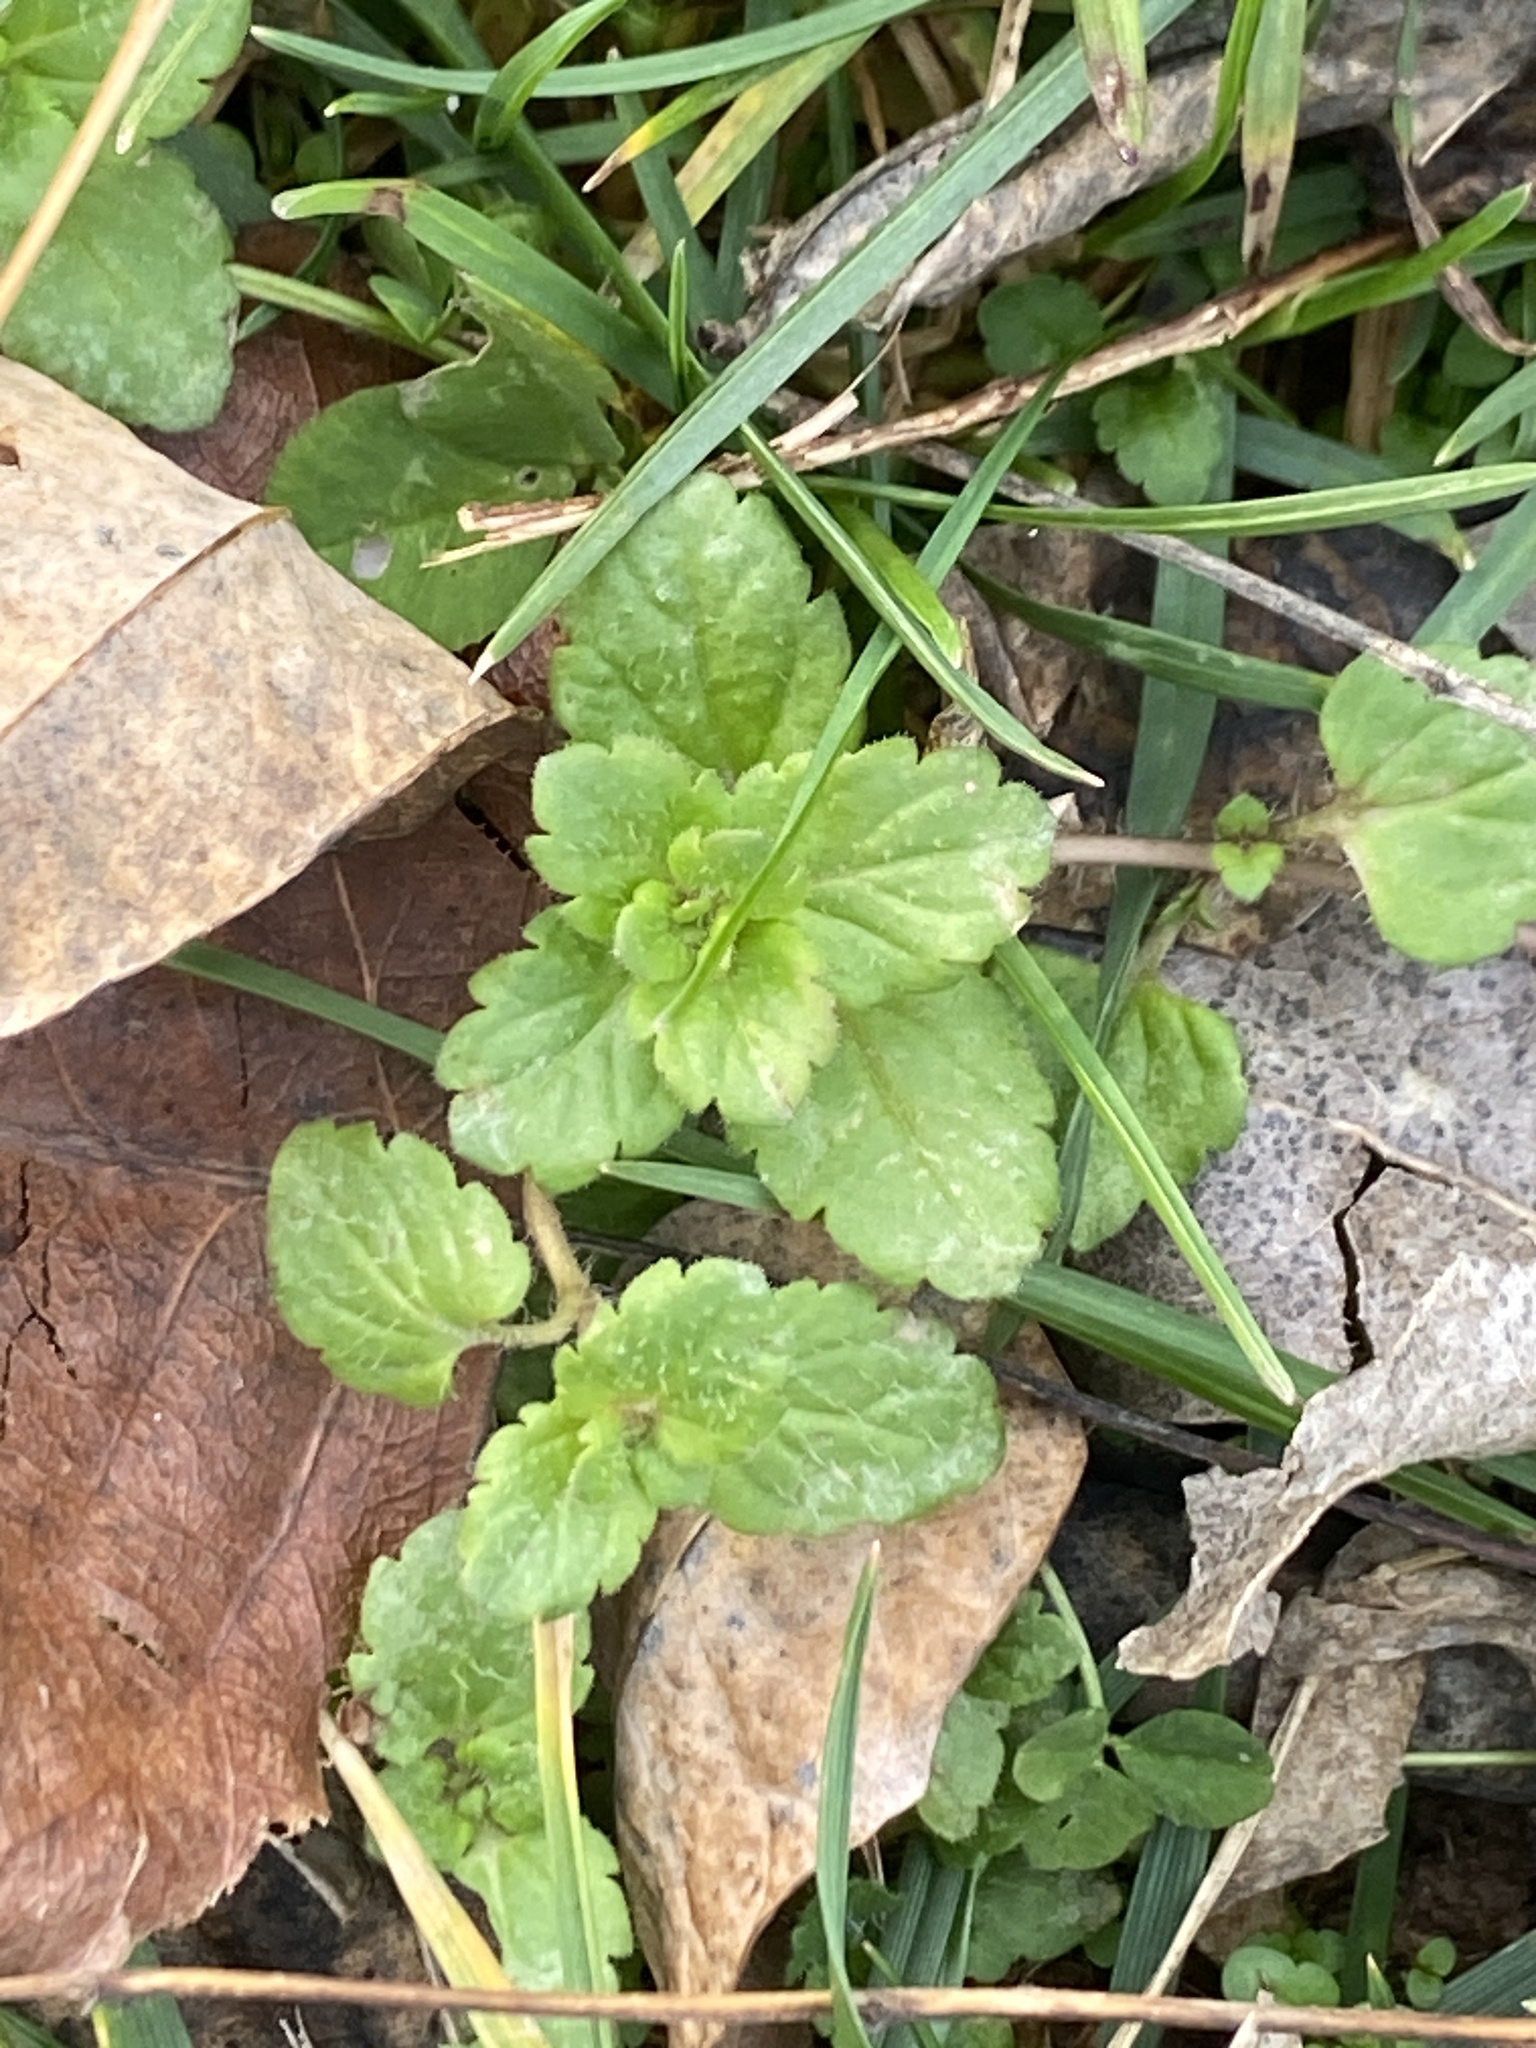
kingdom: Plantae
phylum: Tracheophyta
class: Magnoliopsida
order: Lamiales
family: Plantaginaceae
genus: Veronica
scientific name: Veronica persica
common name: Common field-speedwell
